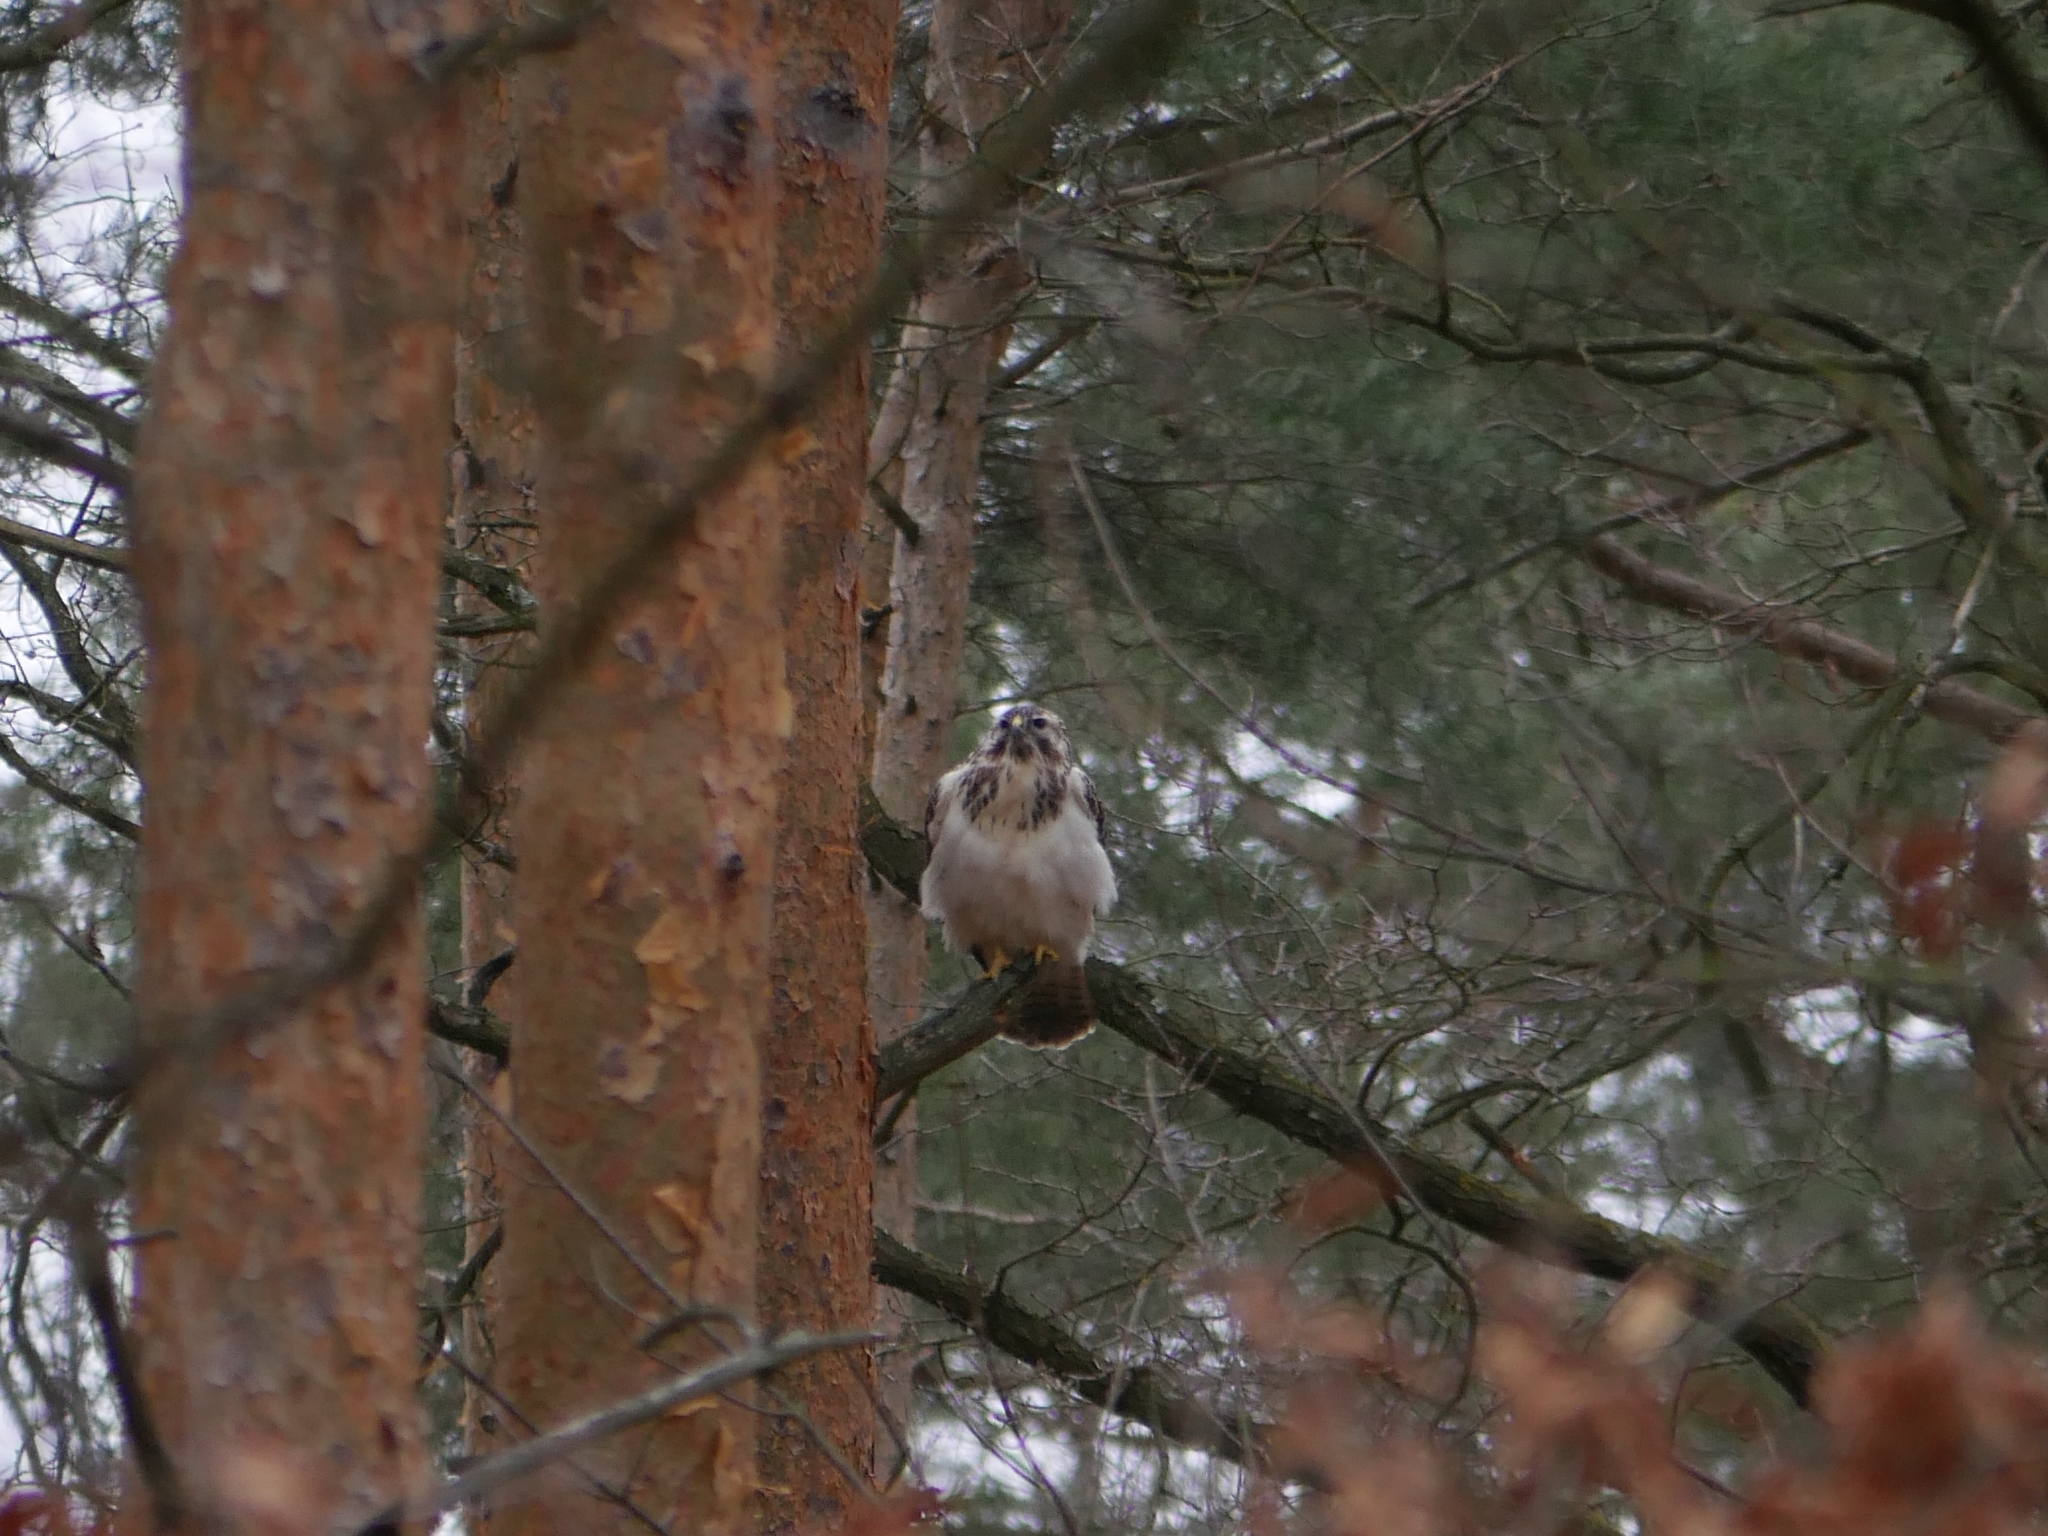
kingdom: Animalia
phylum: Chordata
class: Aves
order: Accipitriformes
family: Accipitridae
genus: Buteo
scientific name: Buteo buteo
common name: Common buzzard
